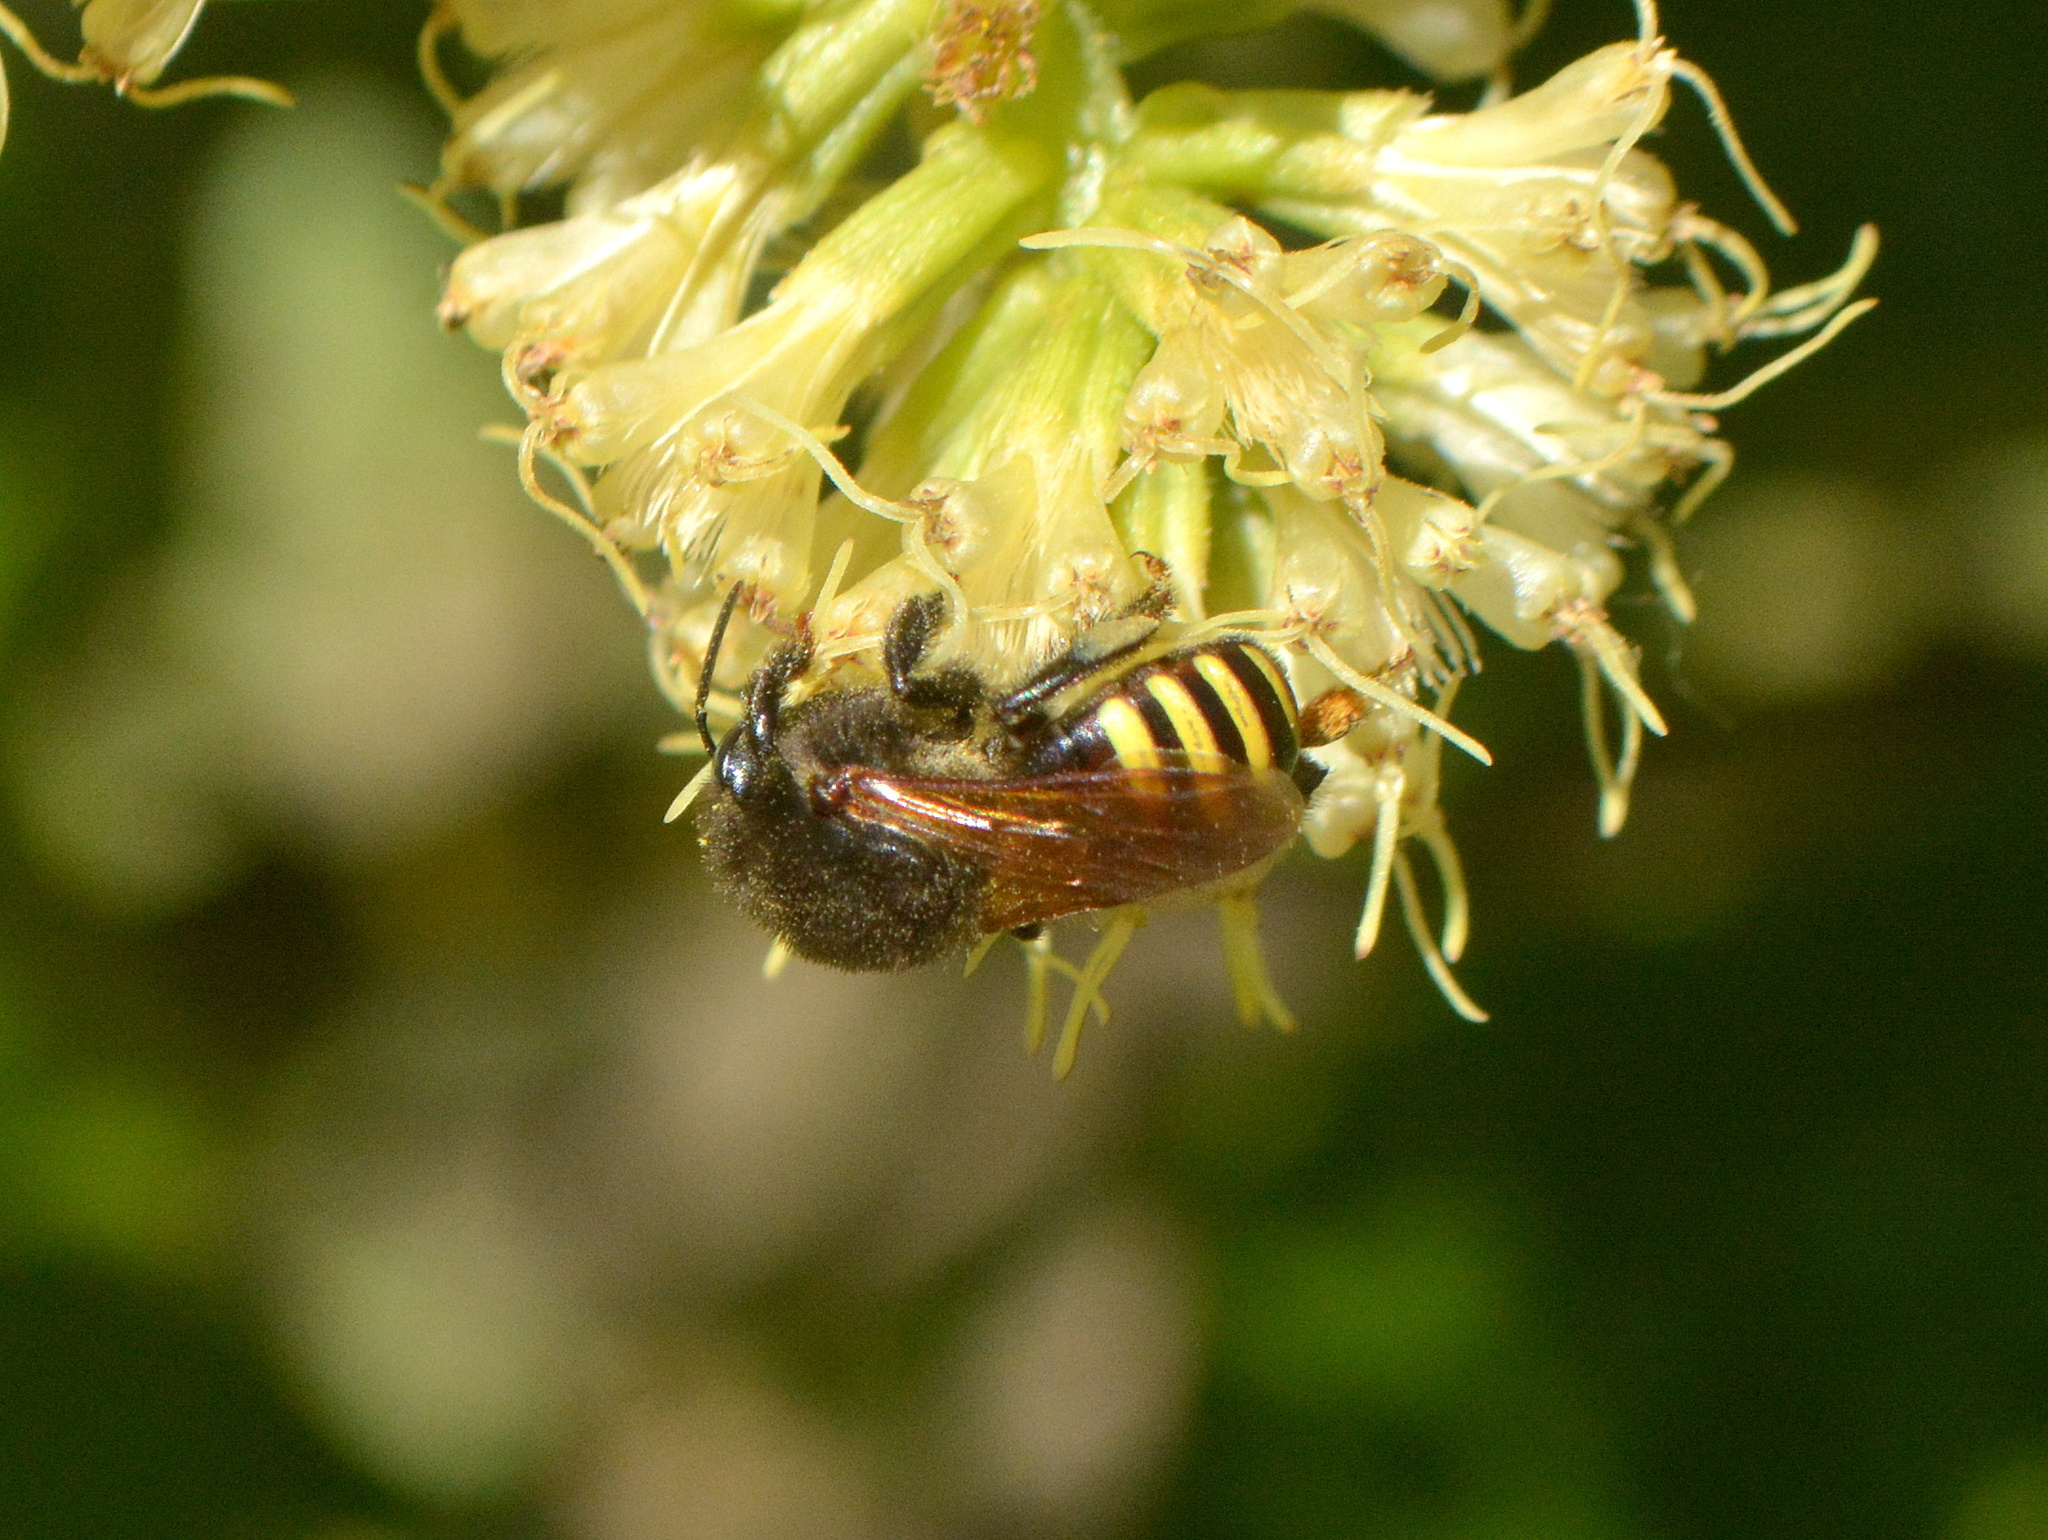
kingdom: Animalia
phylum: Arthropoda
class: Insecta
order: Hymenoptera
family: Apidae
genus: Melipona
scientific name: Melipona quadrifasciata
